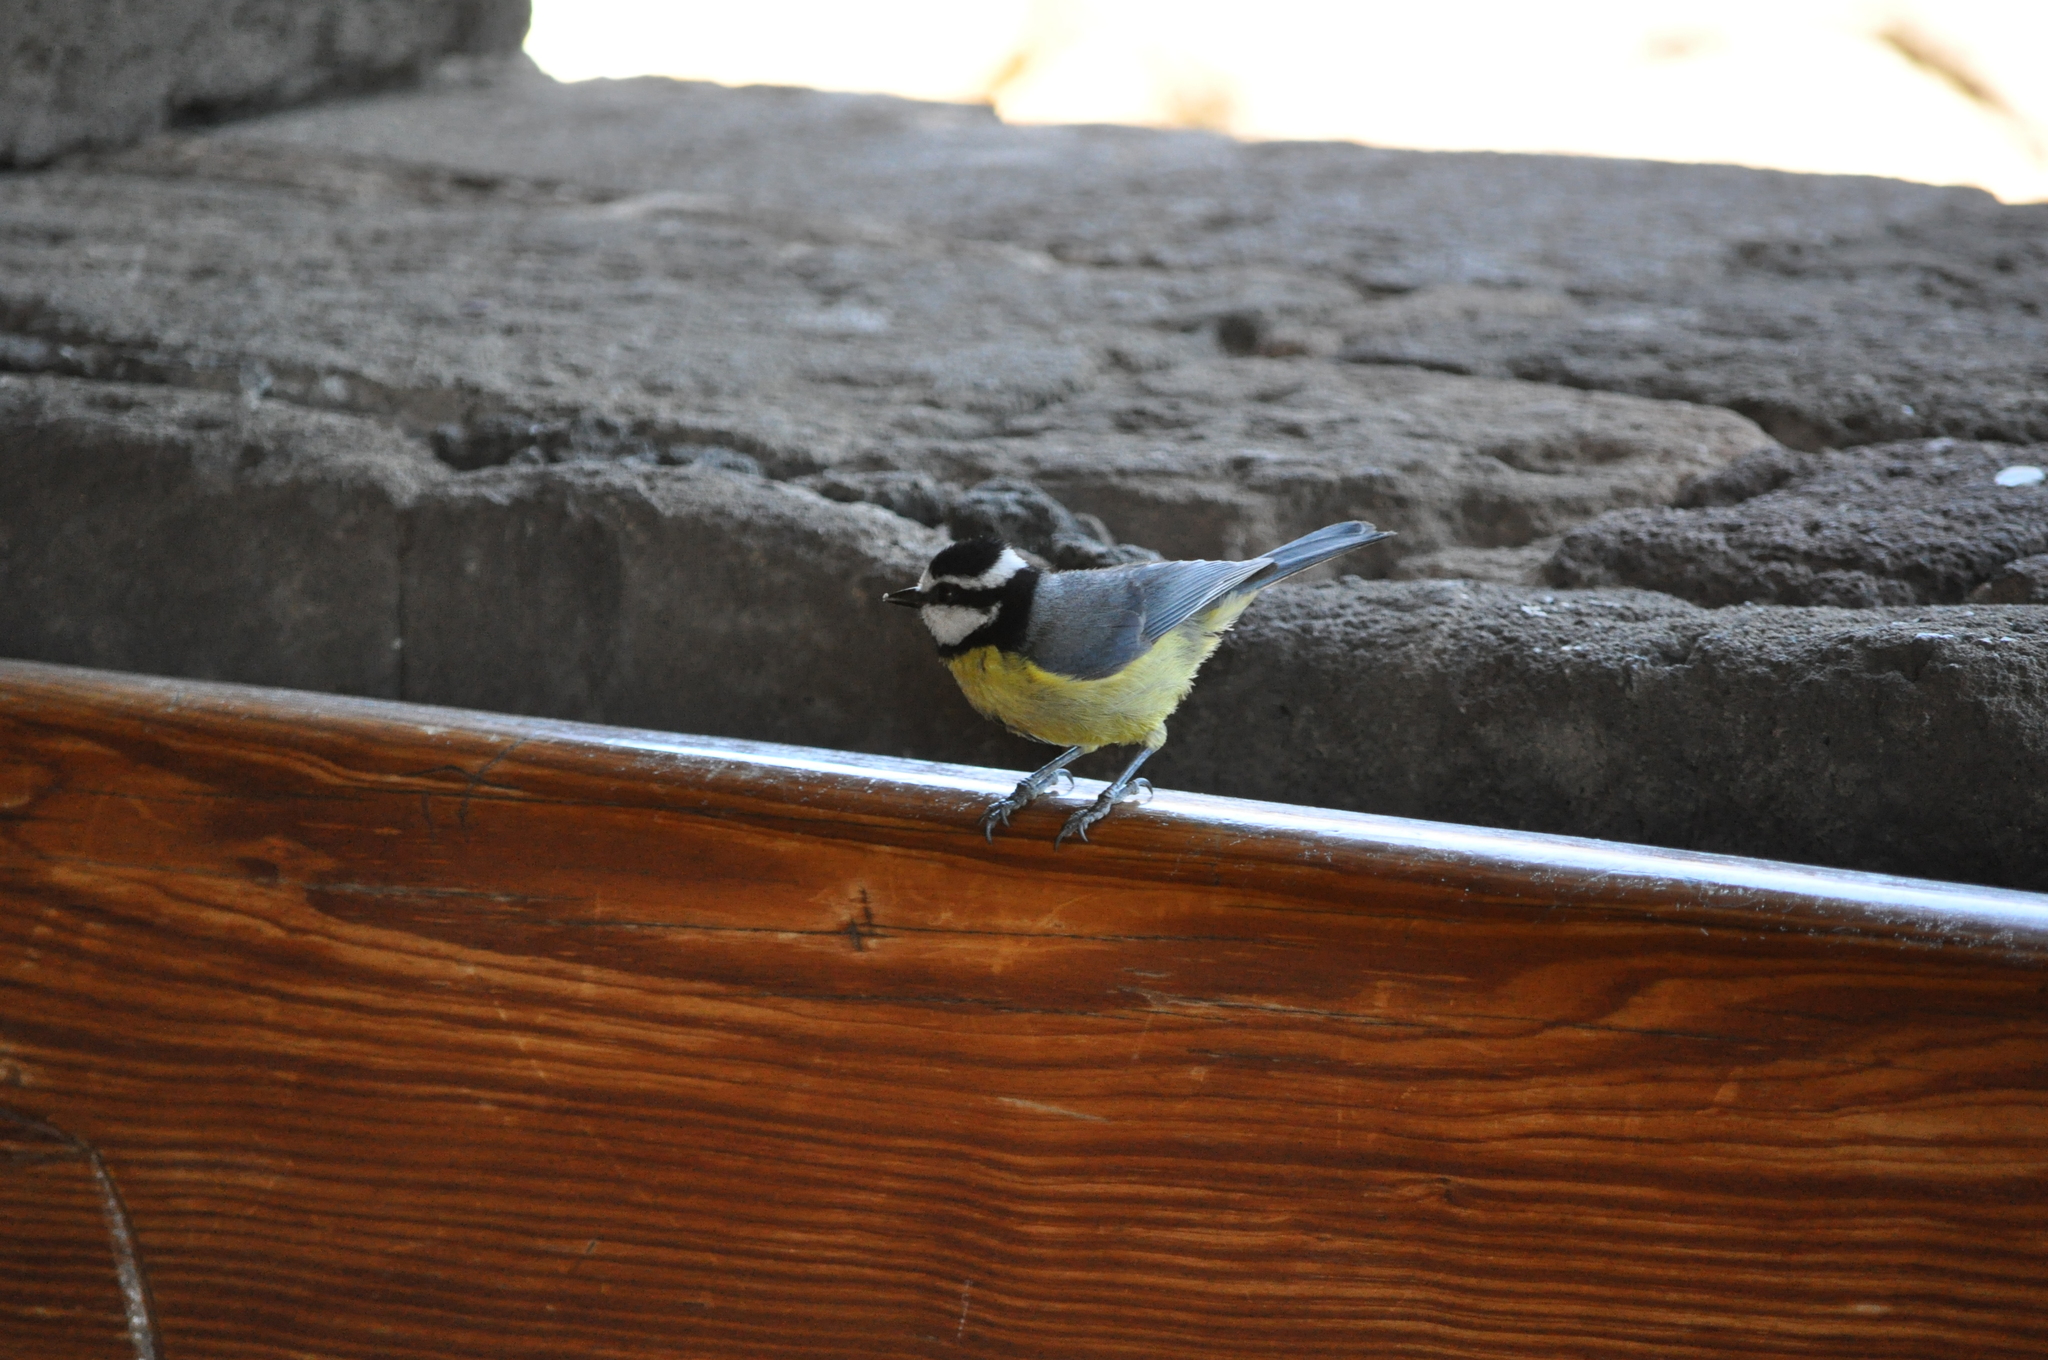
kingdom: Animalia
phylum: Chordata
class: Aves
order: Passeriformes
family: Paridae
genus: Cyanistes
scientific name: Cyanistes teneriffae
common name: African blue tit
